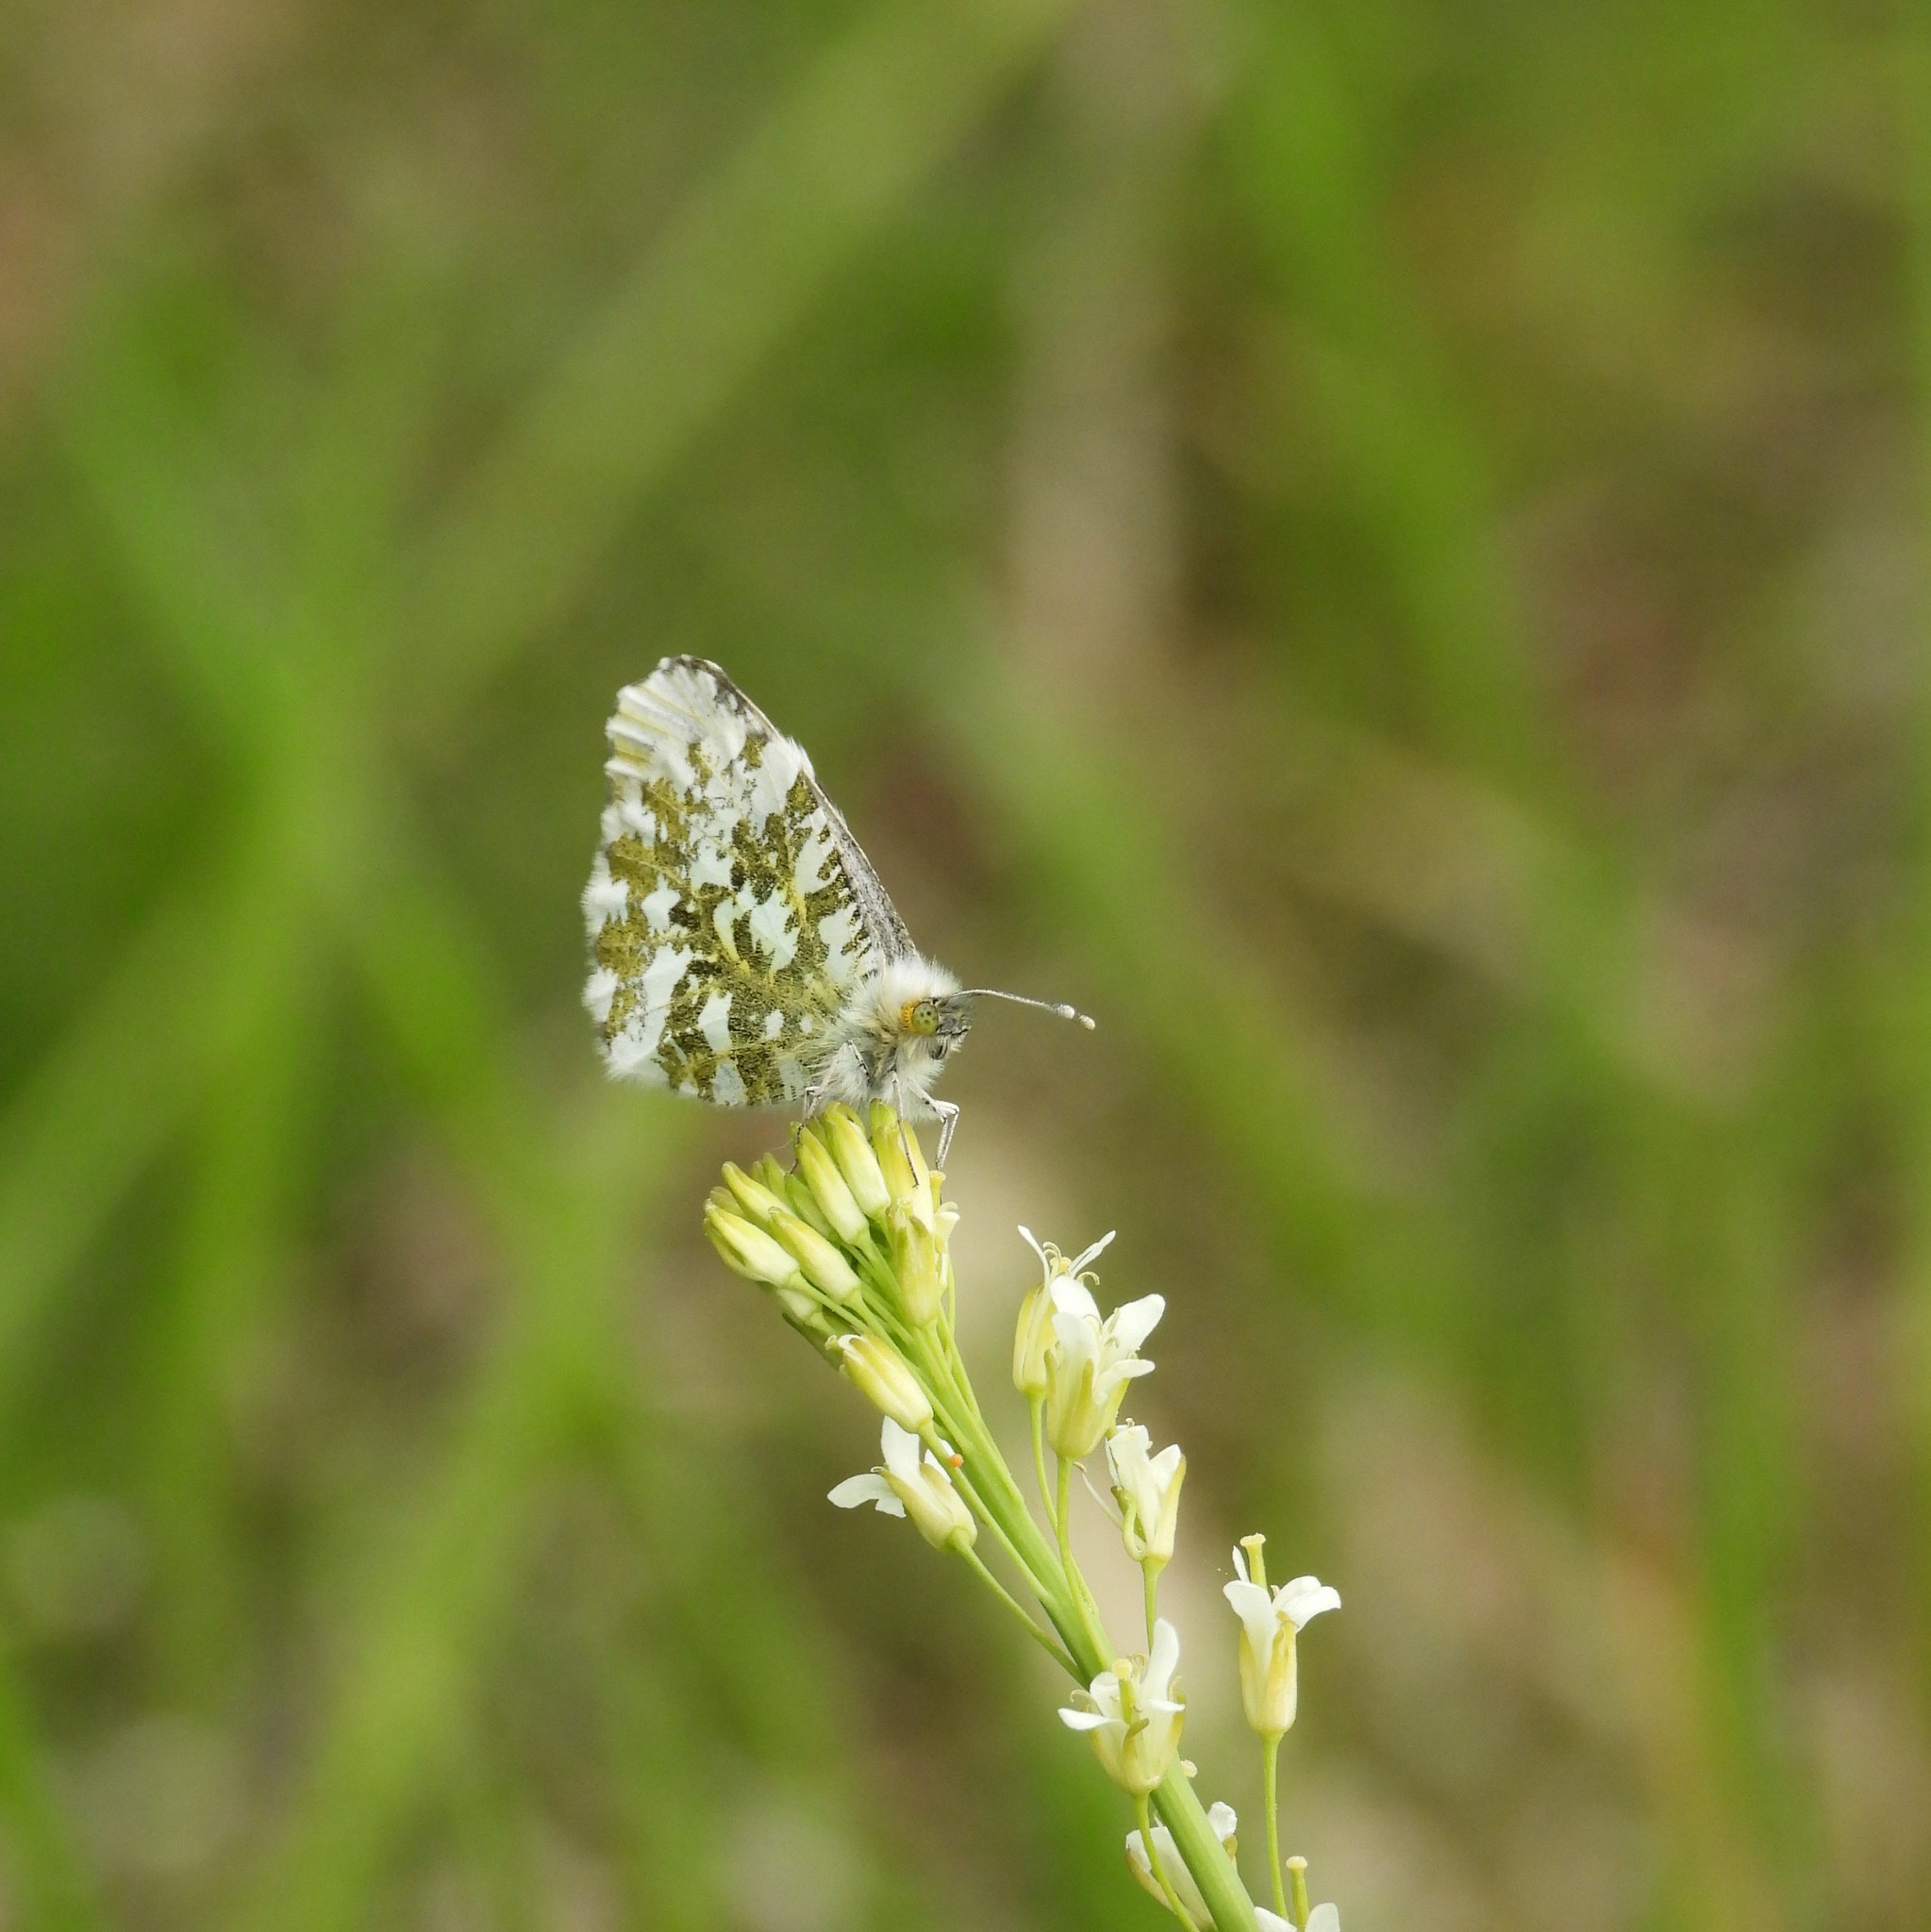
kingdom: Animalia
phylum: Arthropoda
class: Insecta
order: Lepidoptera
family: Pieridae
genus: Anthocharis
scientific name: Anthocharis cardamines
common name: Orange-tip
